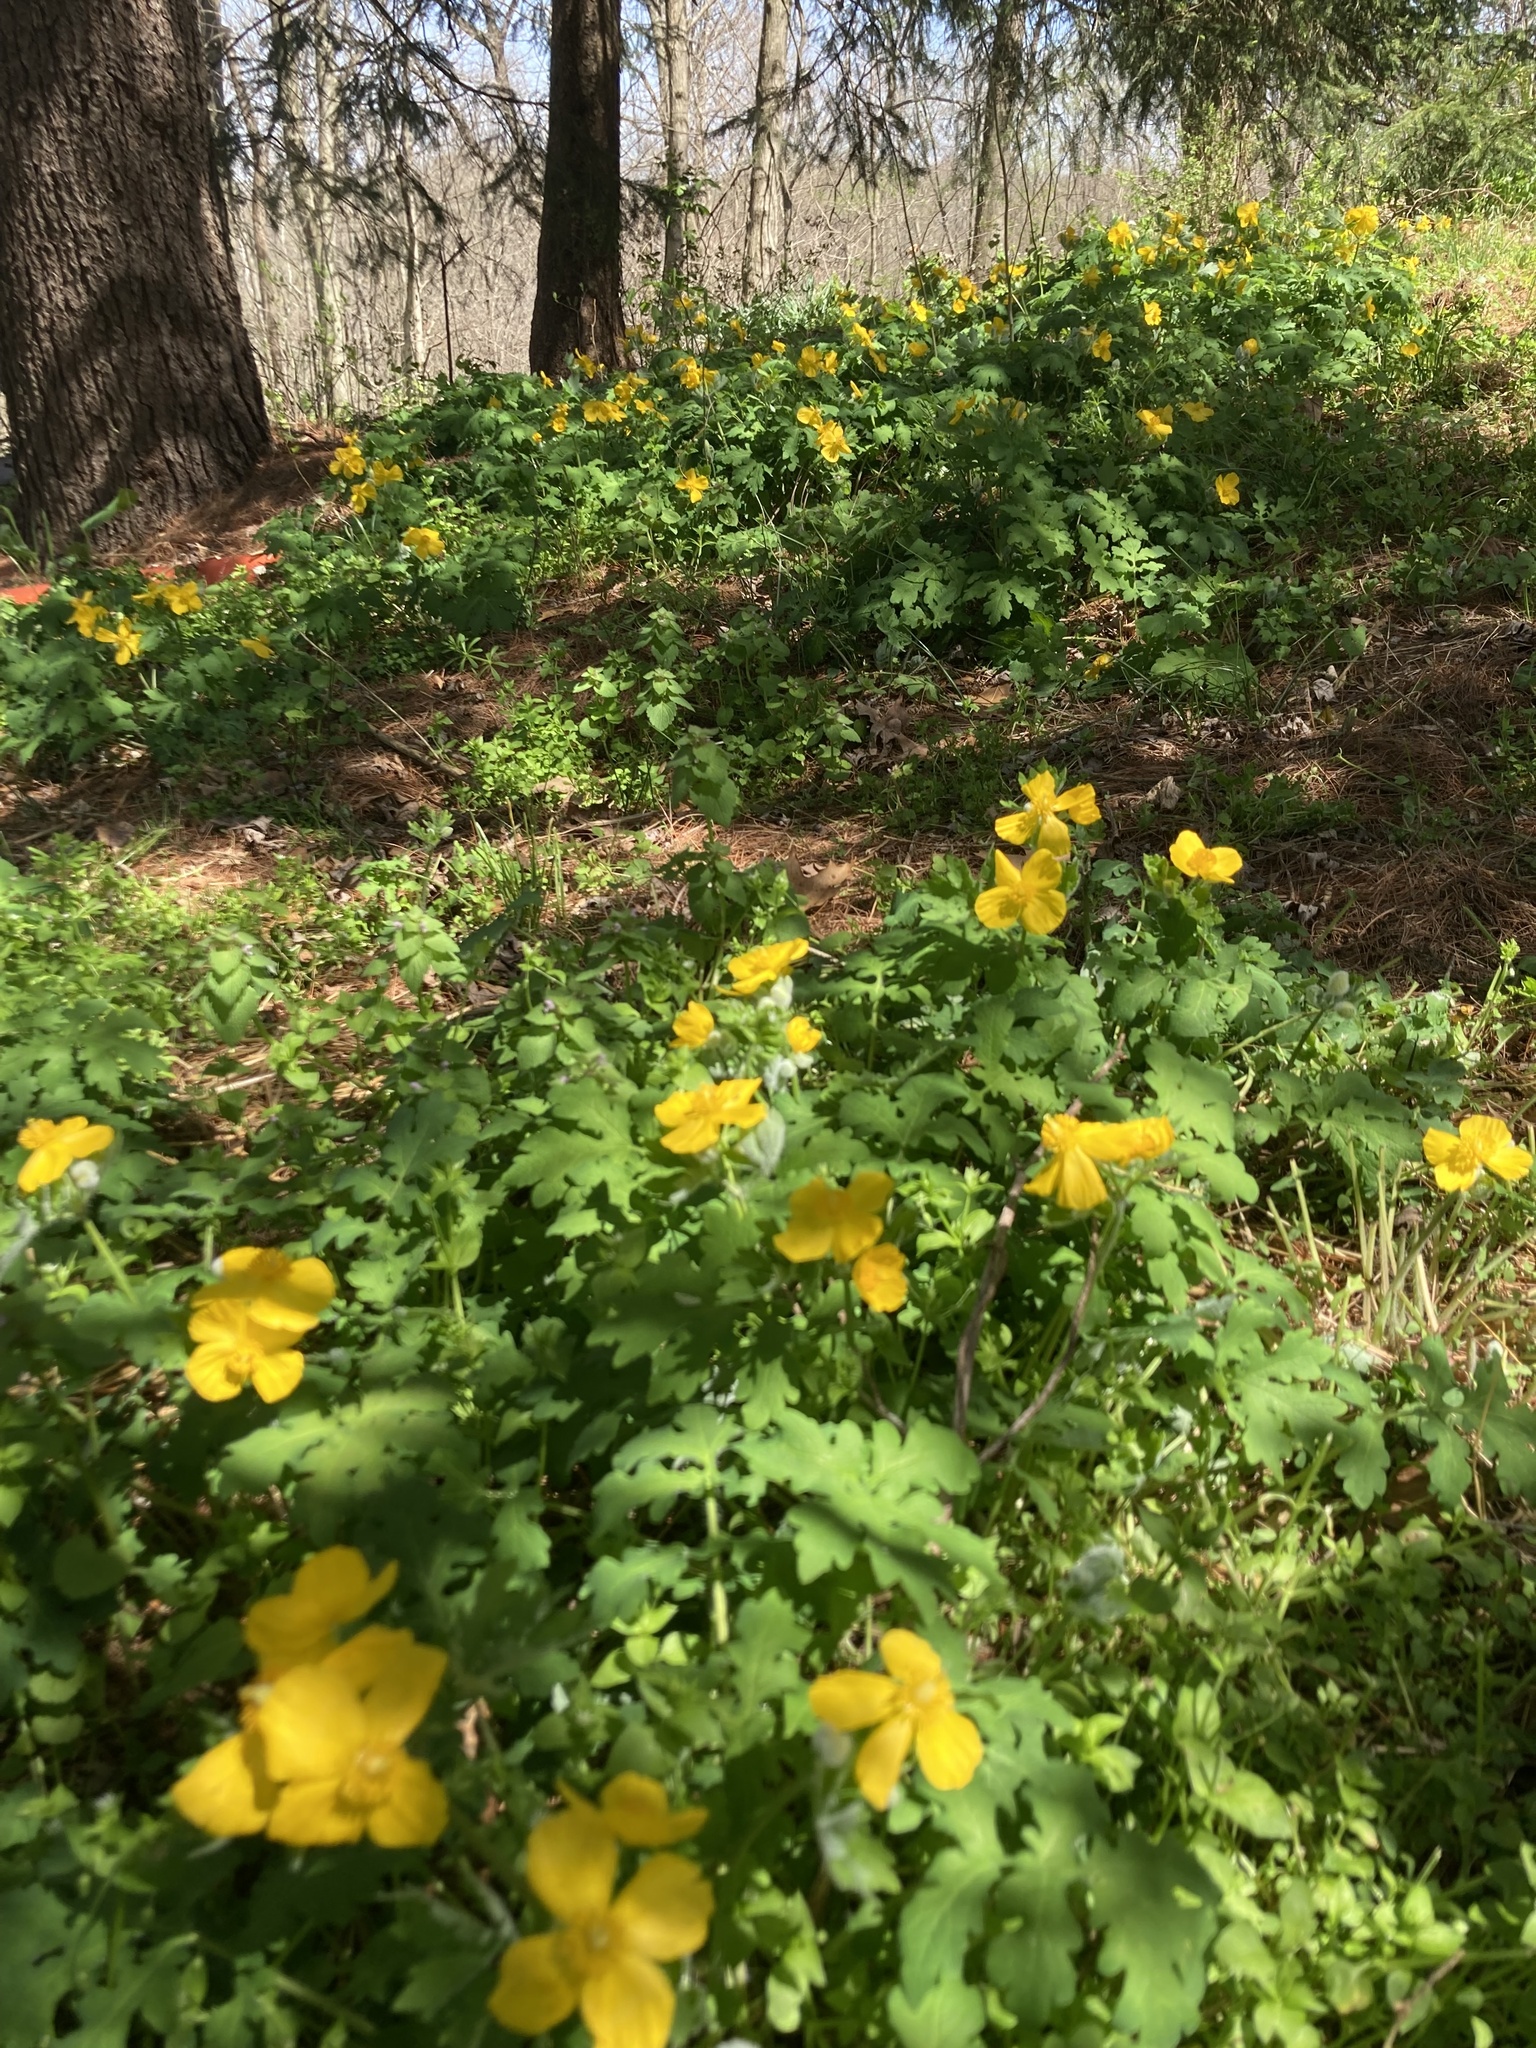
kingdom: Plantae
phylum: Tracheophyta
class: Magnoliopsida
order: Ranunculales
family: Papaveraceae
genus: Stylophorum
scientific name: Stylophorum diphyllum
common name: Celandine poppy
